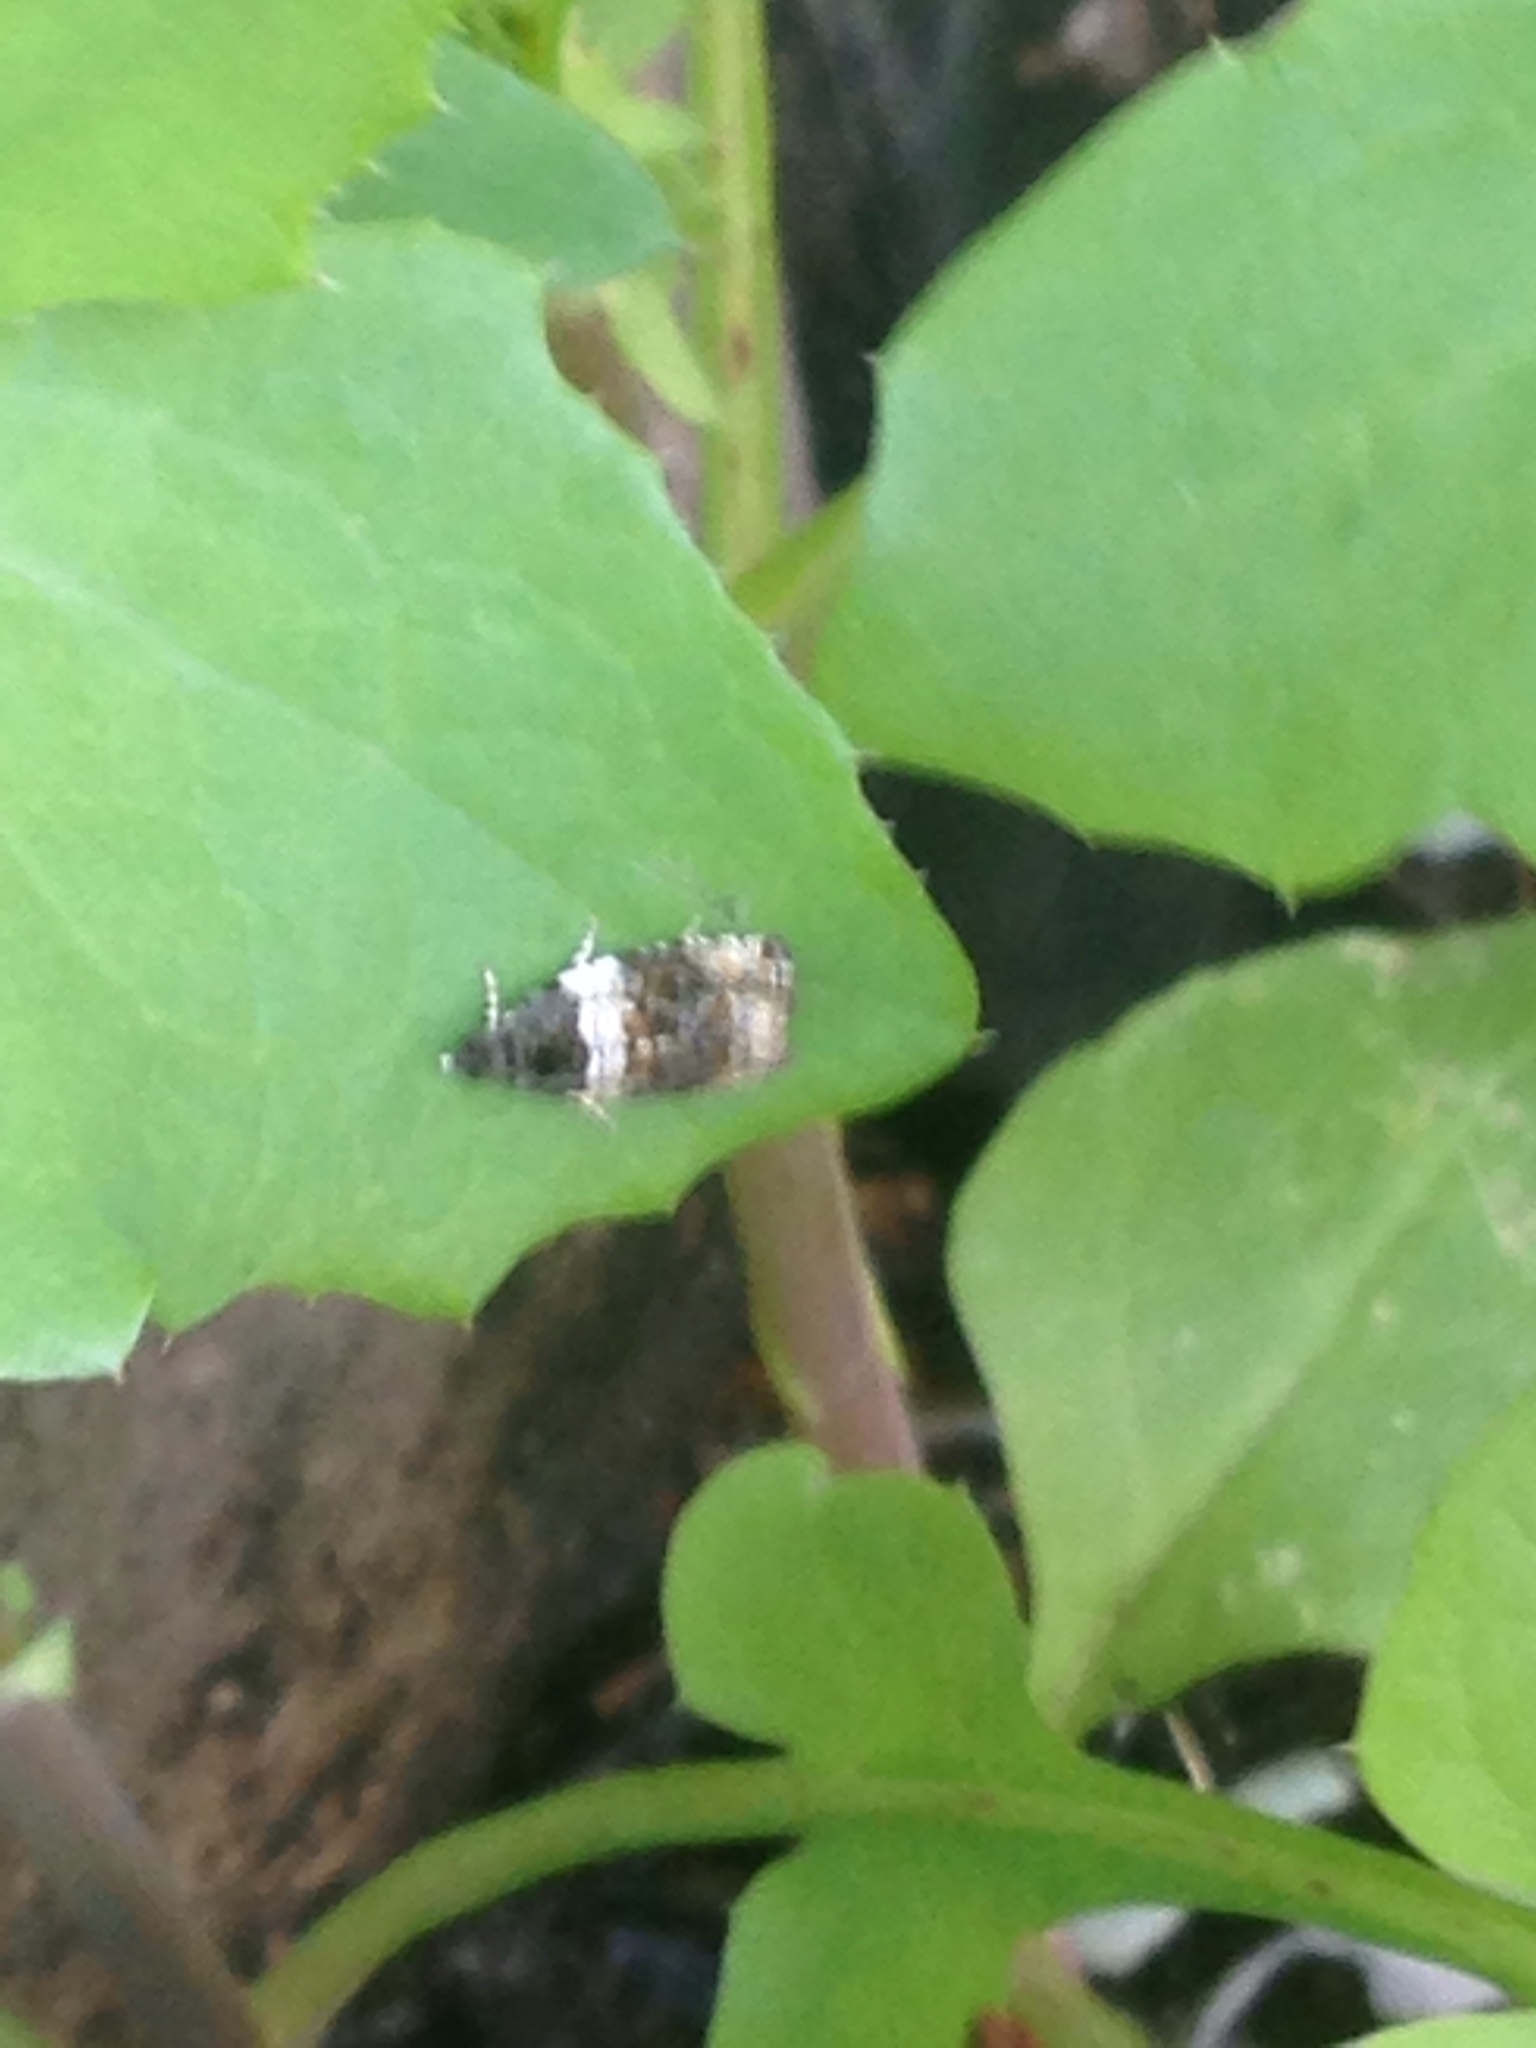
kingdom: Animalia
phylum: Arthropoda
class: Insecta
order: Lepidoptera
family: Tortricidae
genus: Olethreutes
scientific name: Olethreutes fasciatana
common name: Banded olethreutes moth
